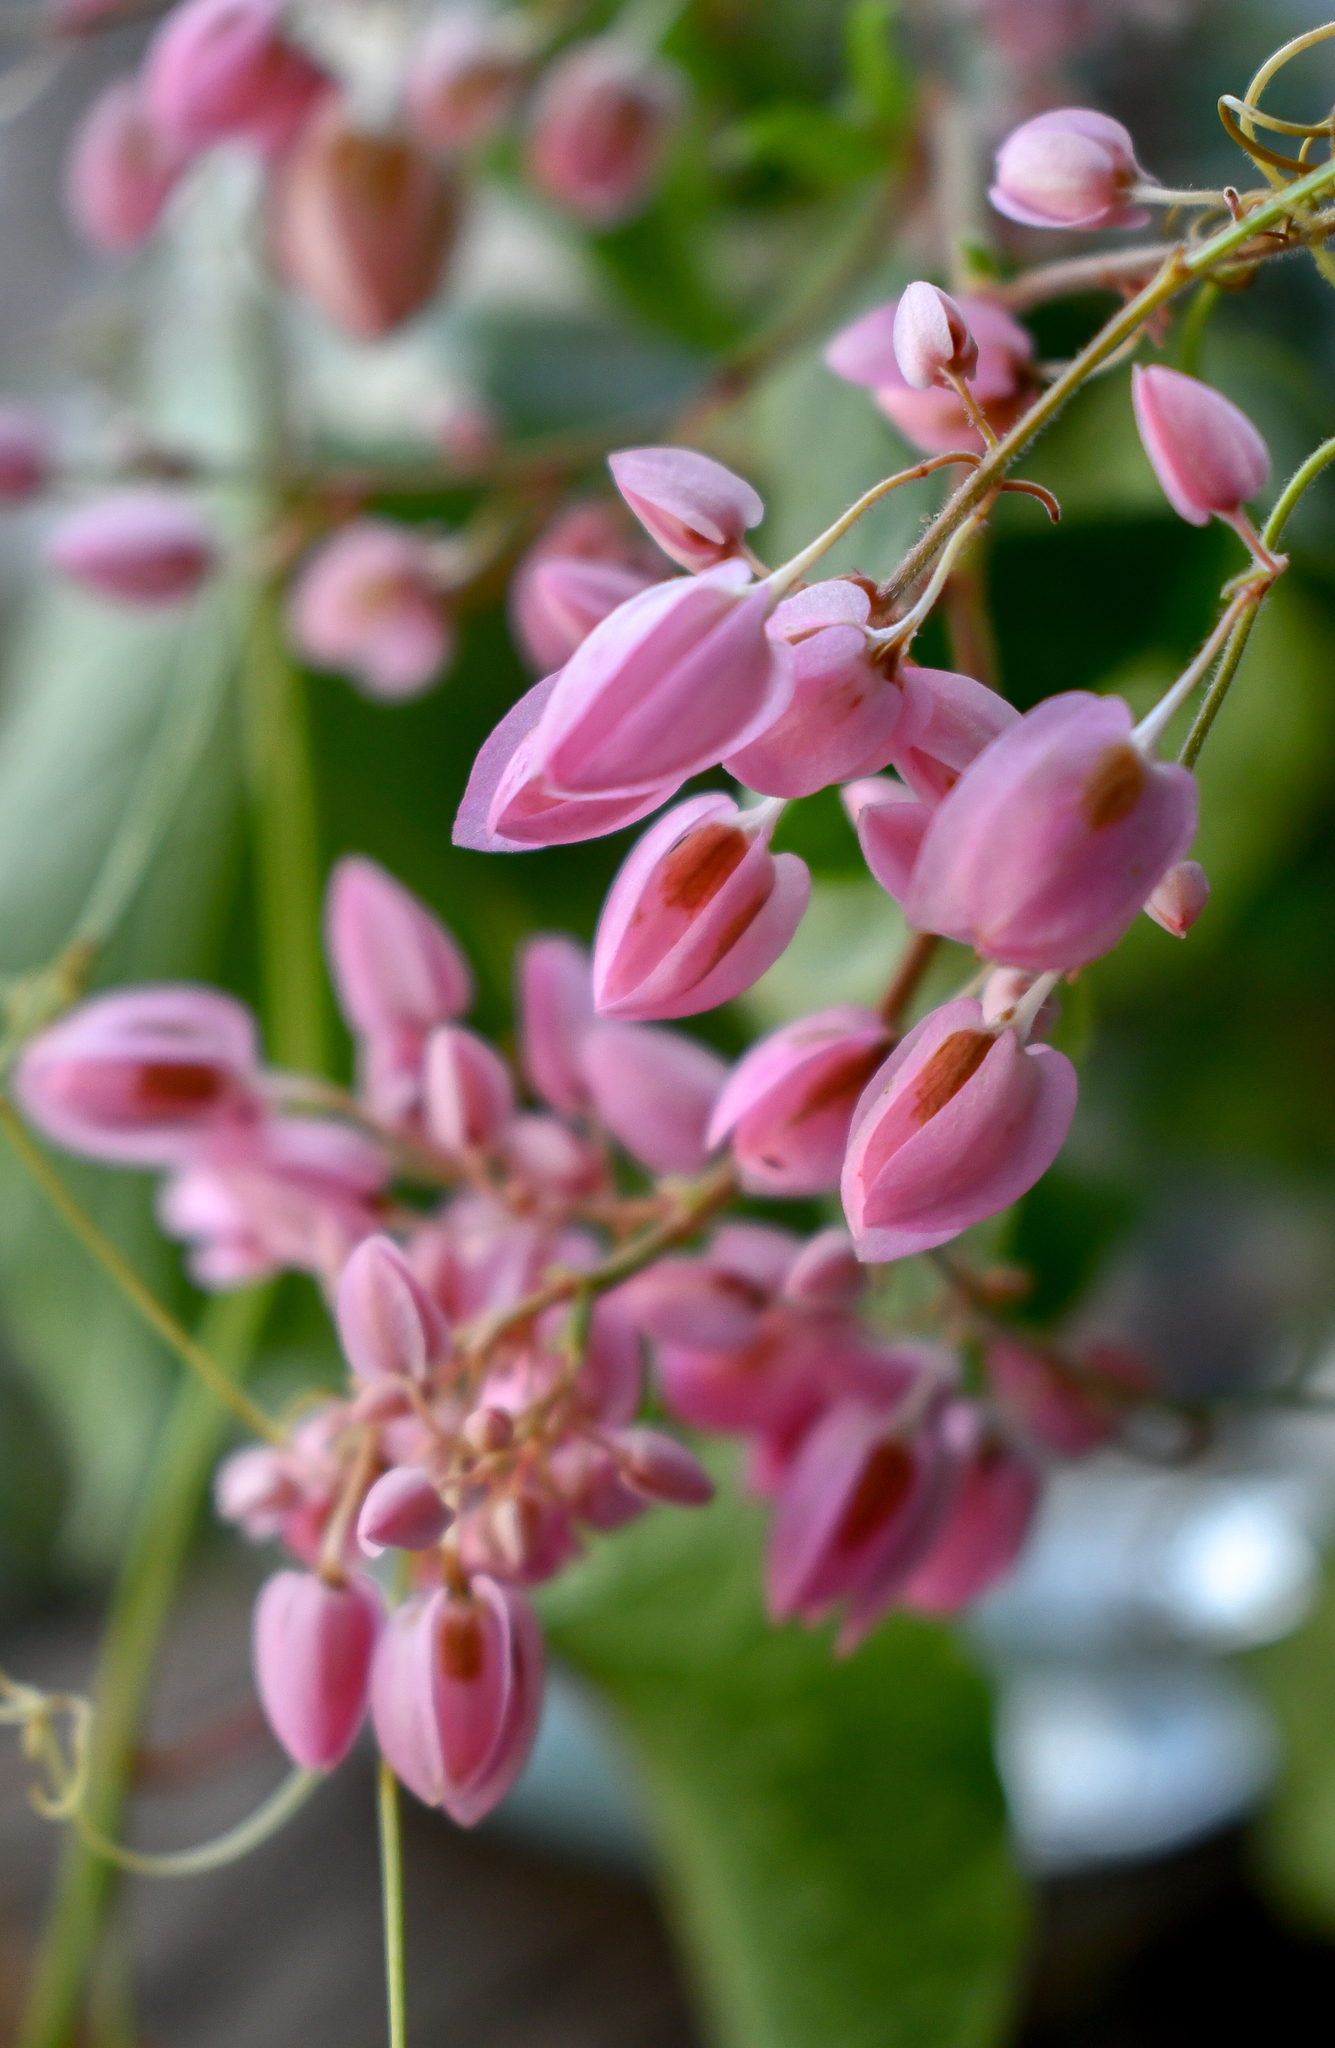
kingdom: Plantae
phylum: Tracheophyta
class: Magnoliopsida
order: Caryophyllales
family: Polygonaceae
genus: Antigonon
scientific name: Antigonon leptopus
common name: Coral vine
